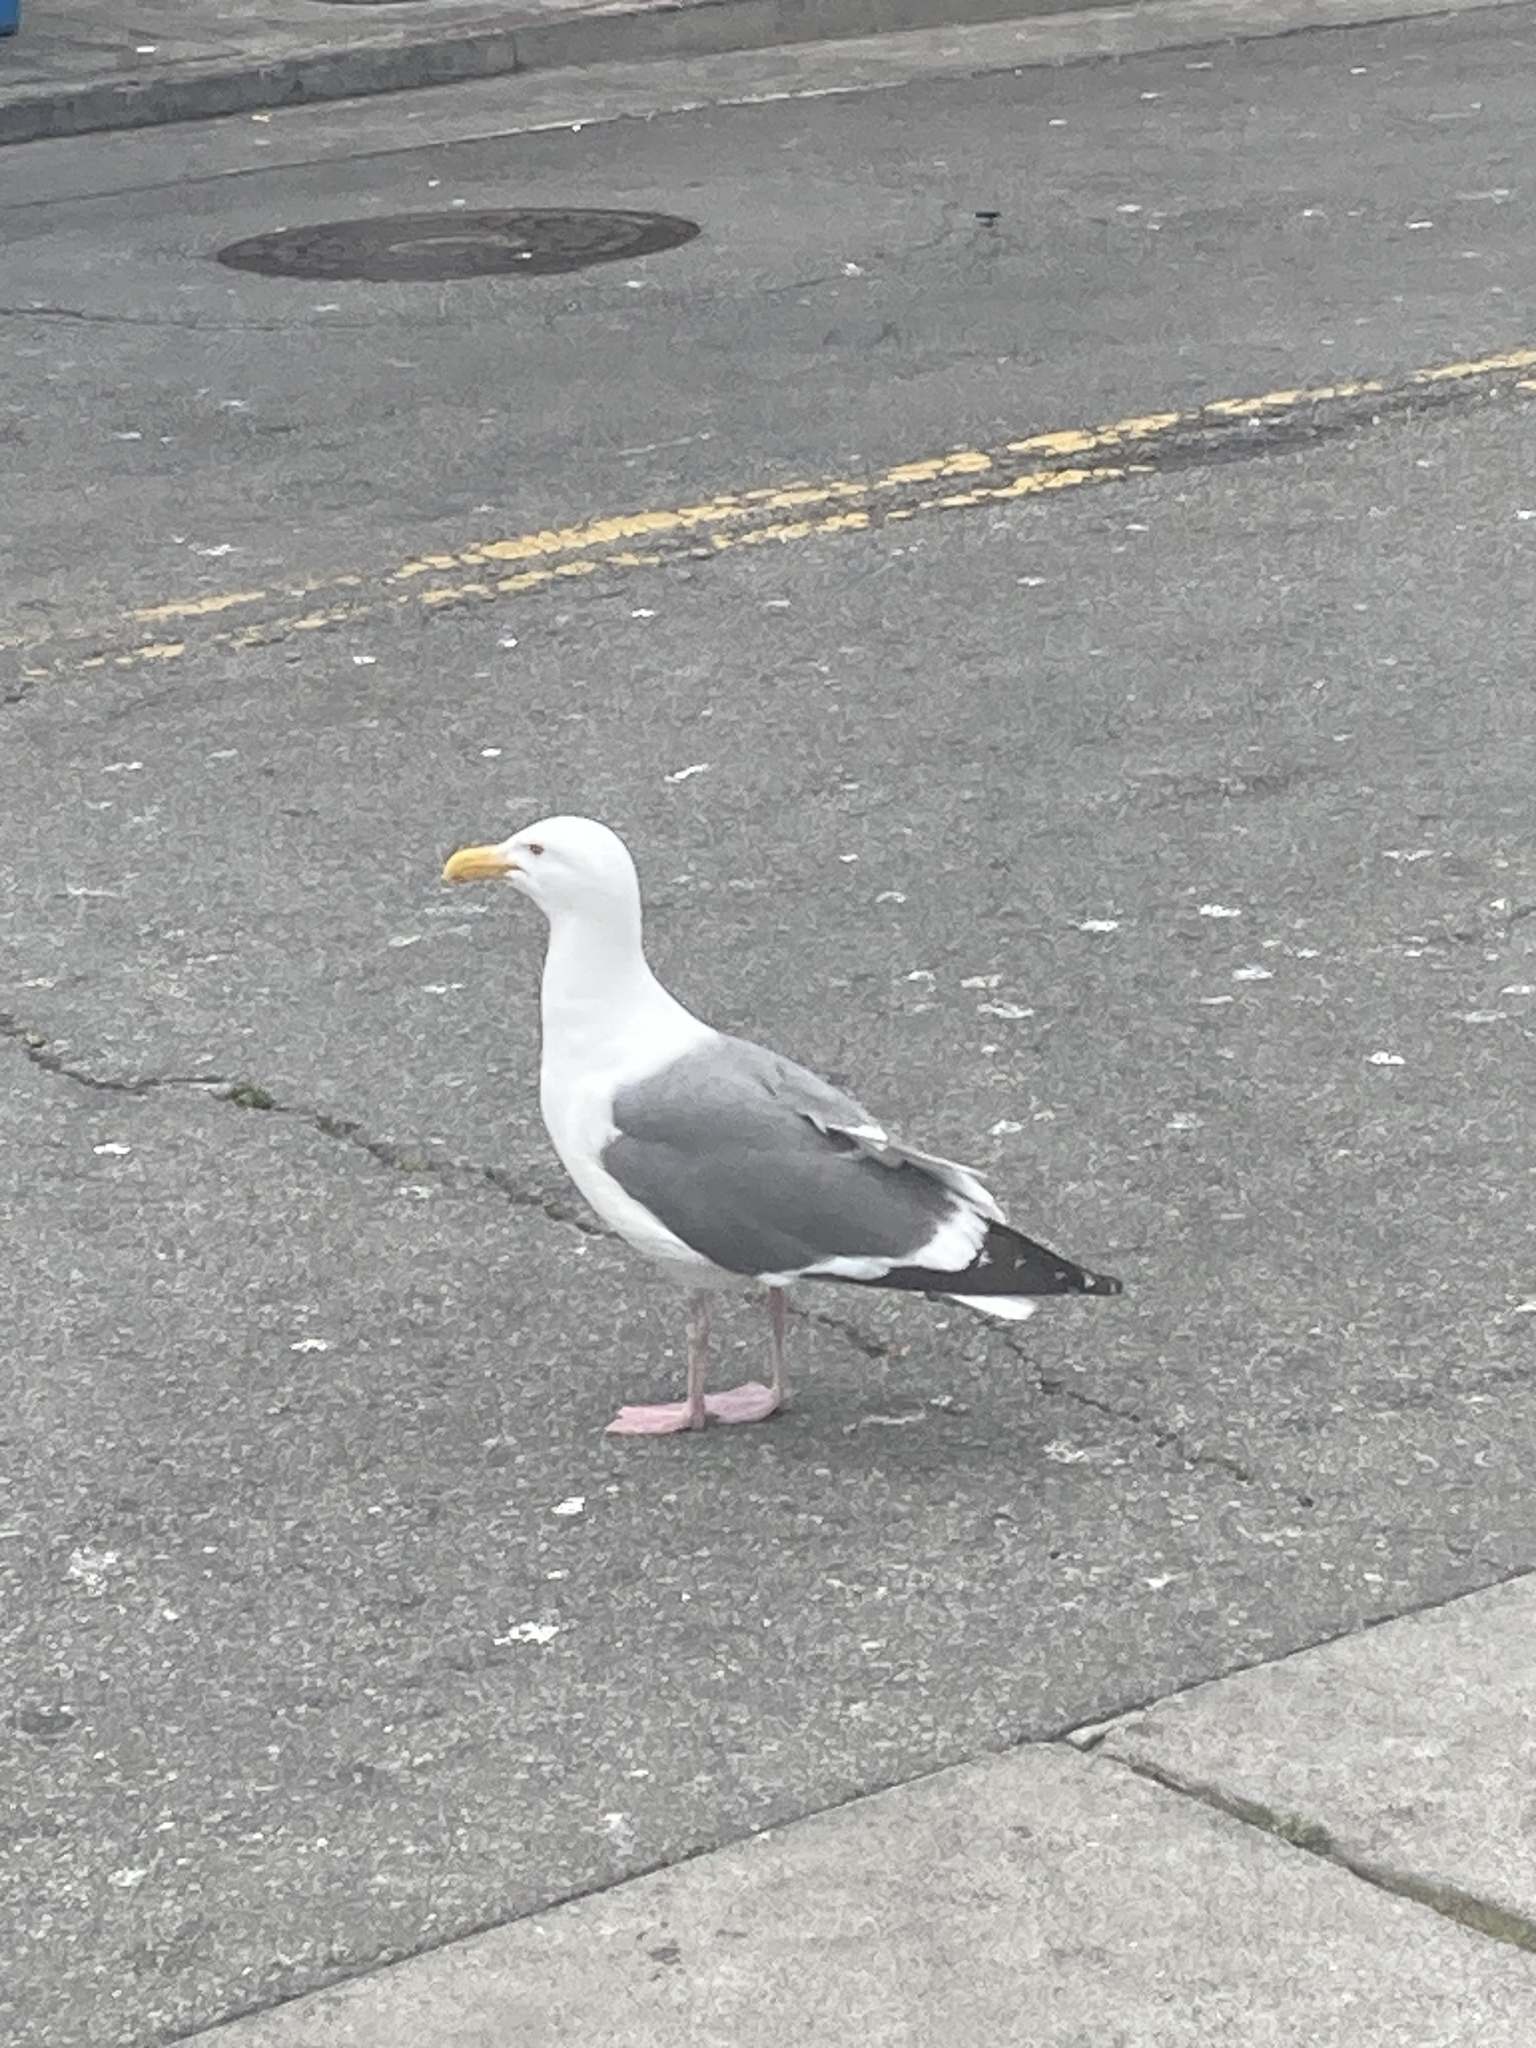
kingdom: Animalia
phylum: Chordata
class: Aves
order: Charadriiformes
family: Laridae
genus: Larus
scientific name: Larus occidentalis
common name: Western gull
